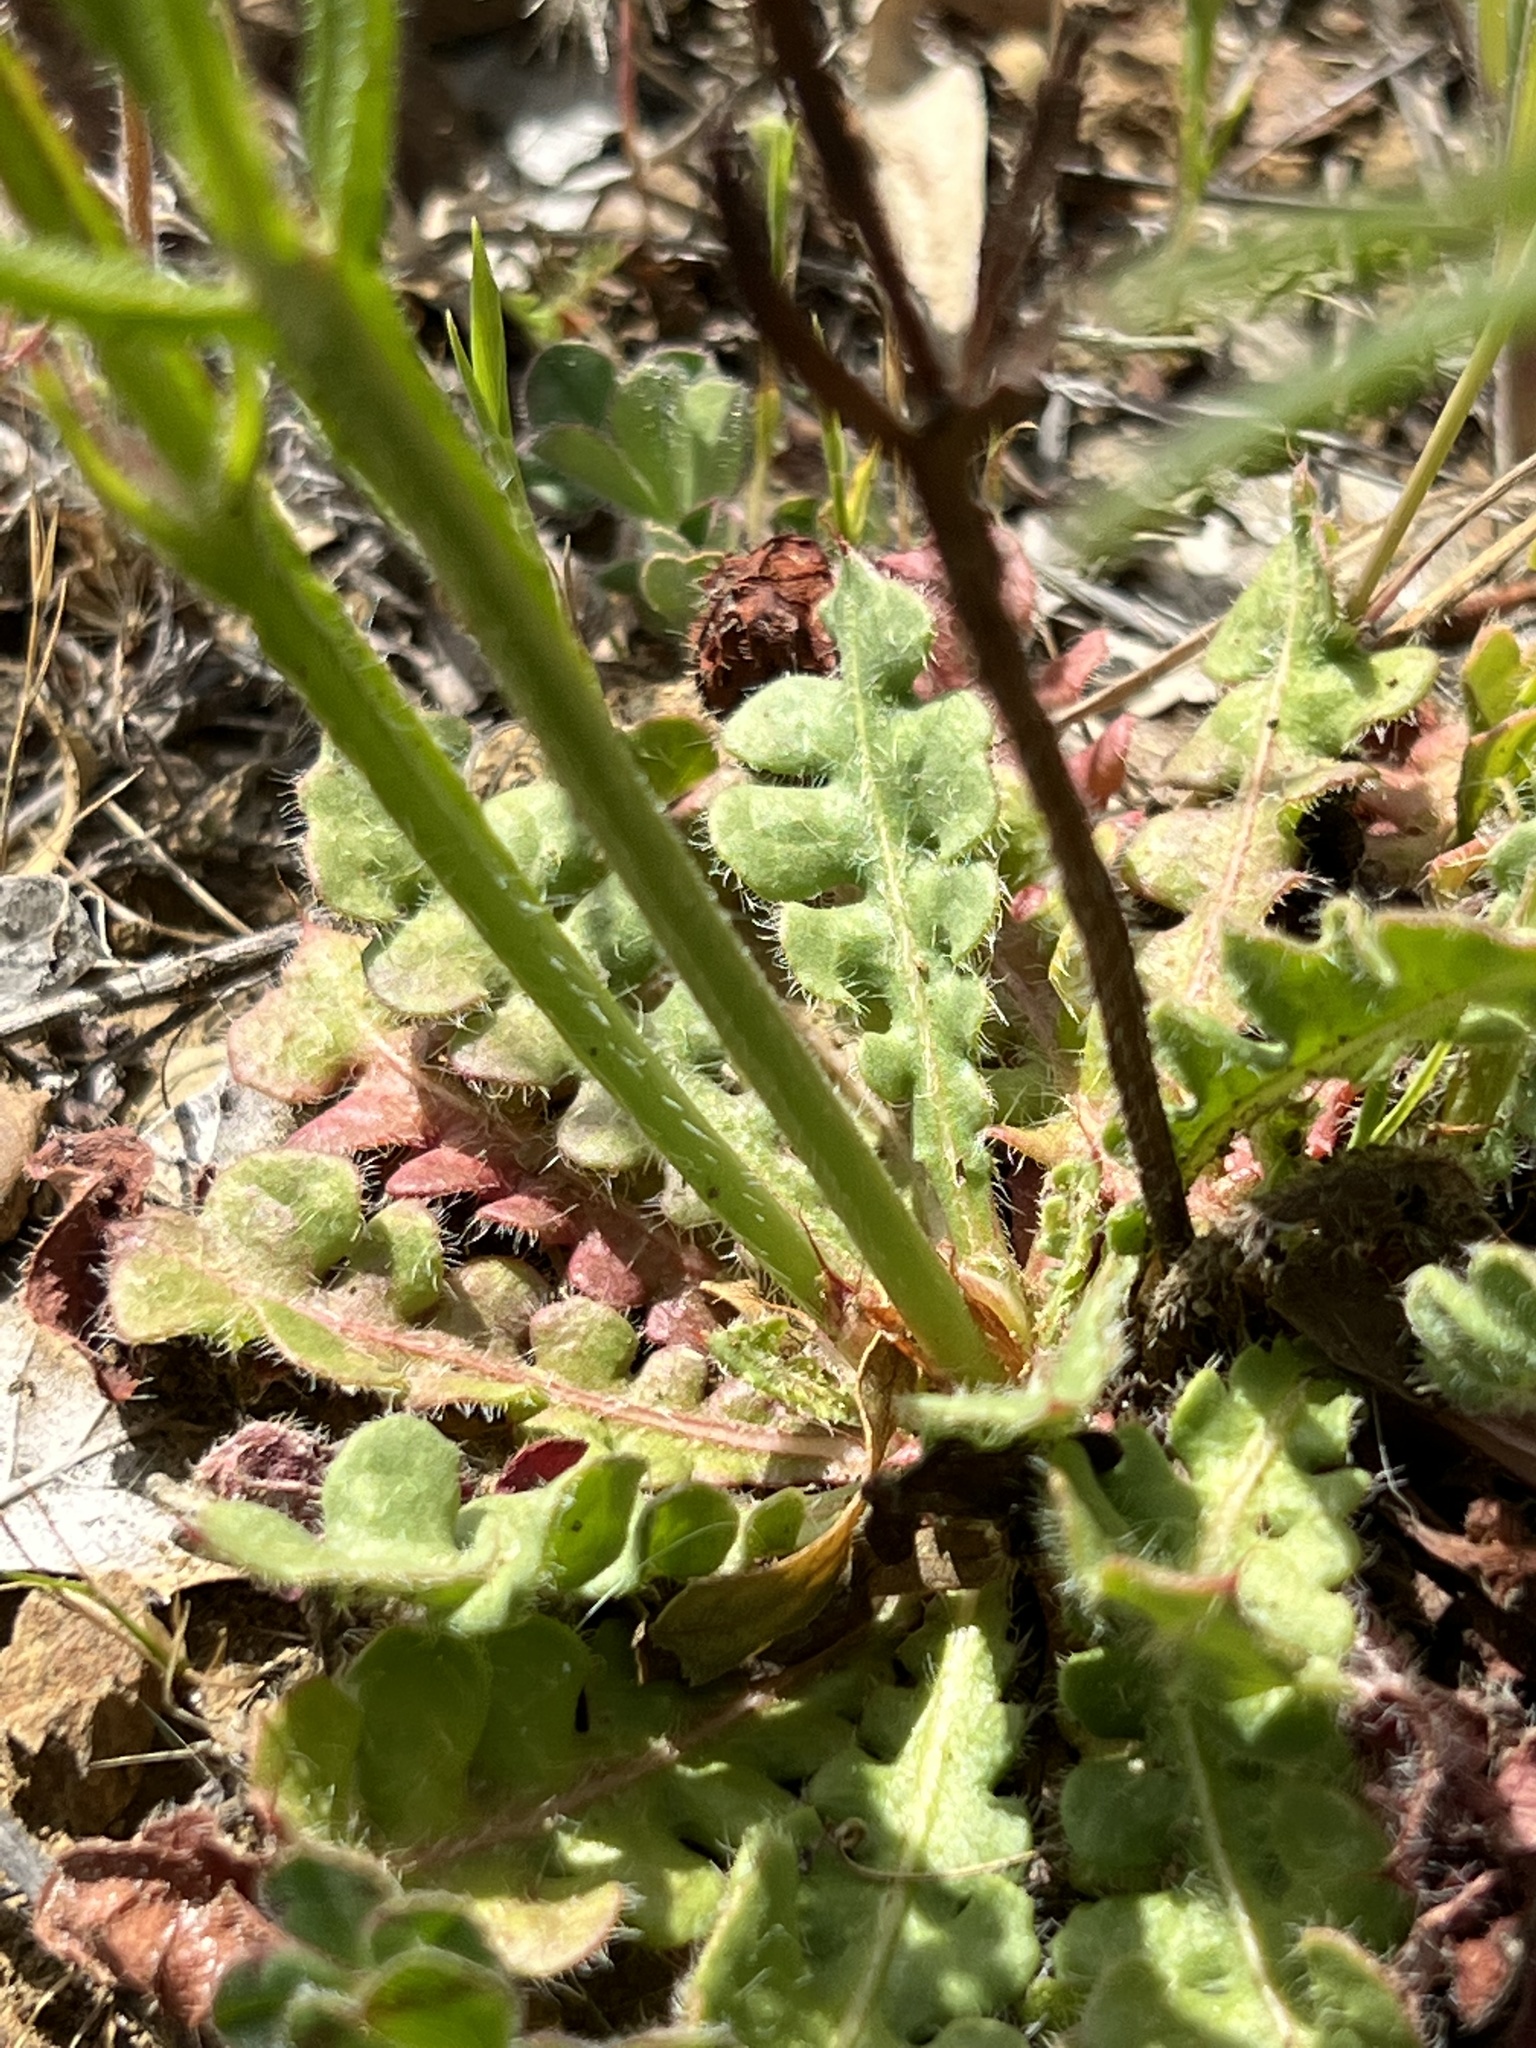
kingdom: Plantae
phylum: Tracheophyta
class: Magnoliopsida
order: Caryophyllales
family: Plumbaginaceae
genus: Limonium
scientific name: Limonium sinuatum
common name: Statice
